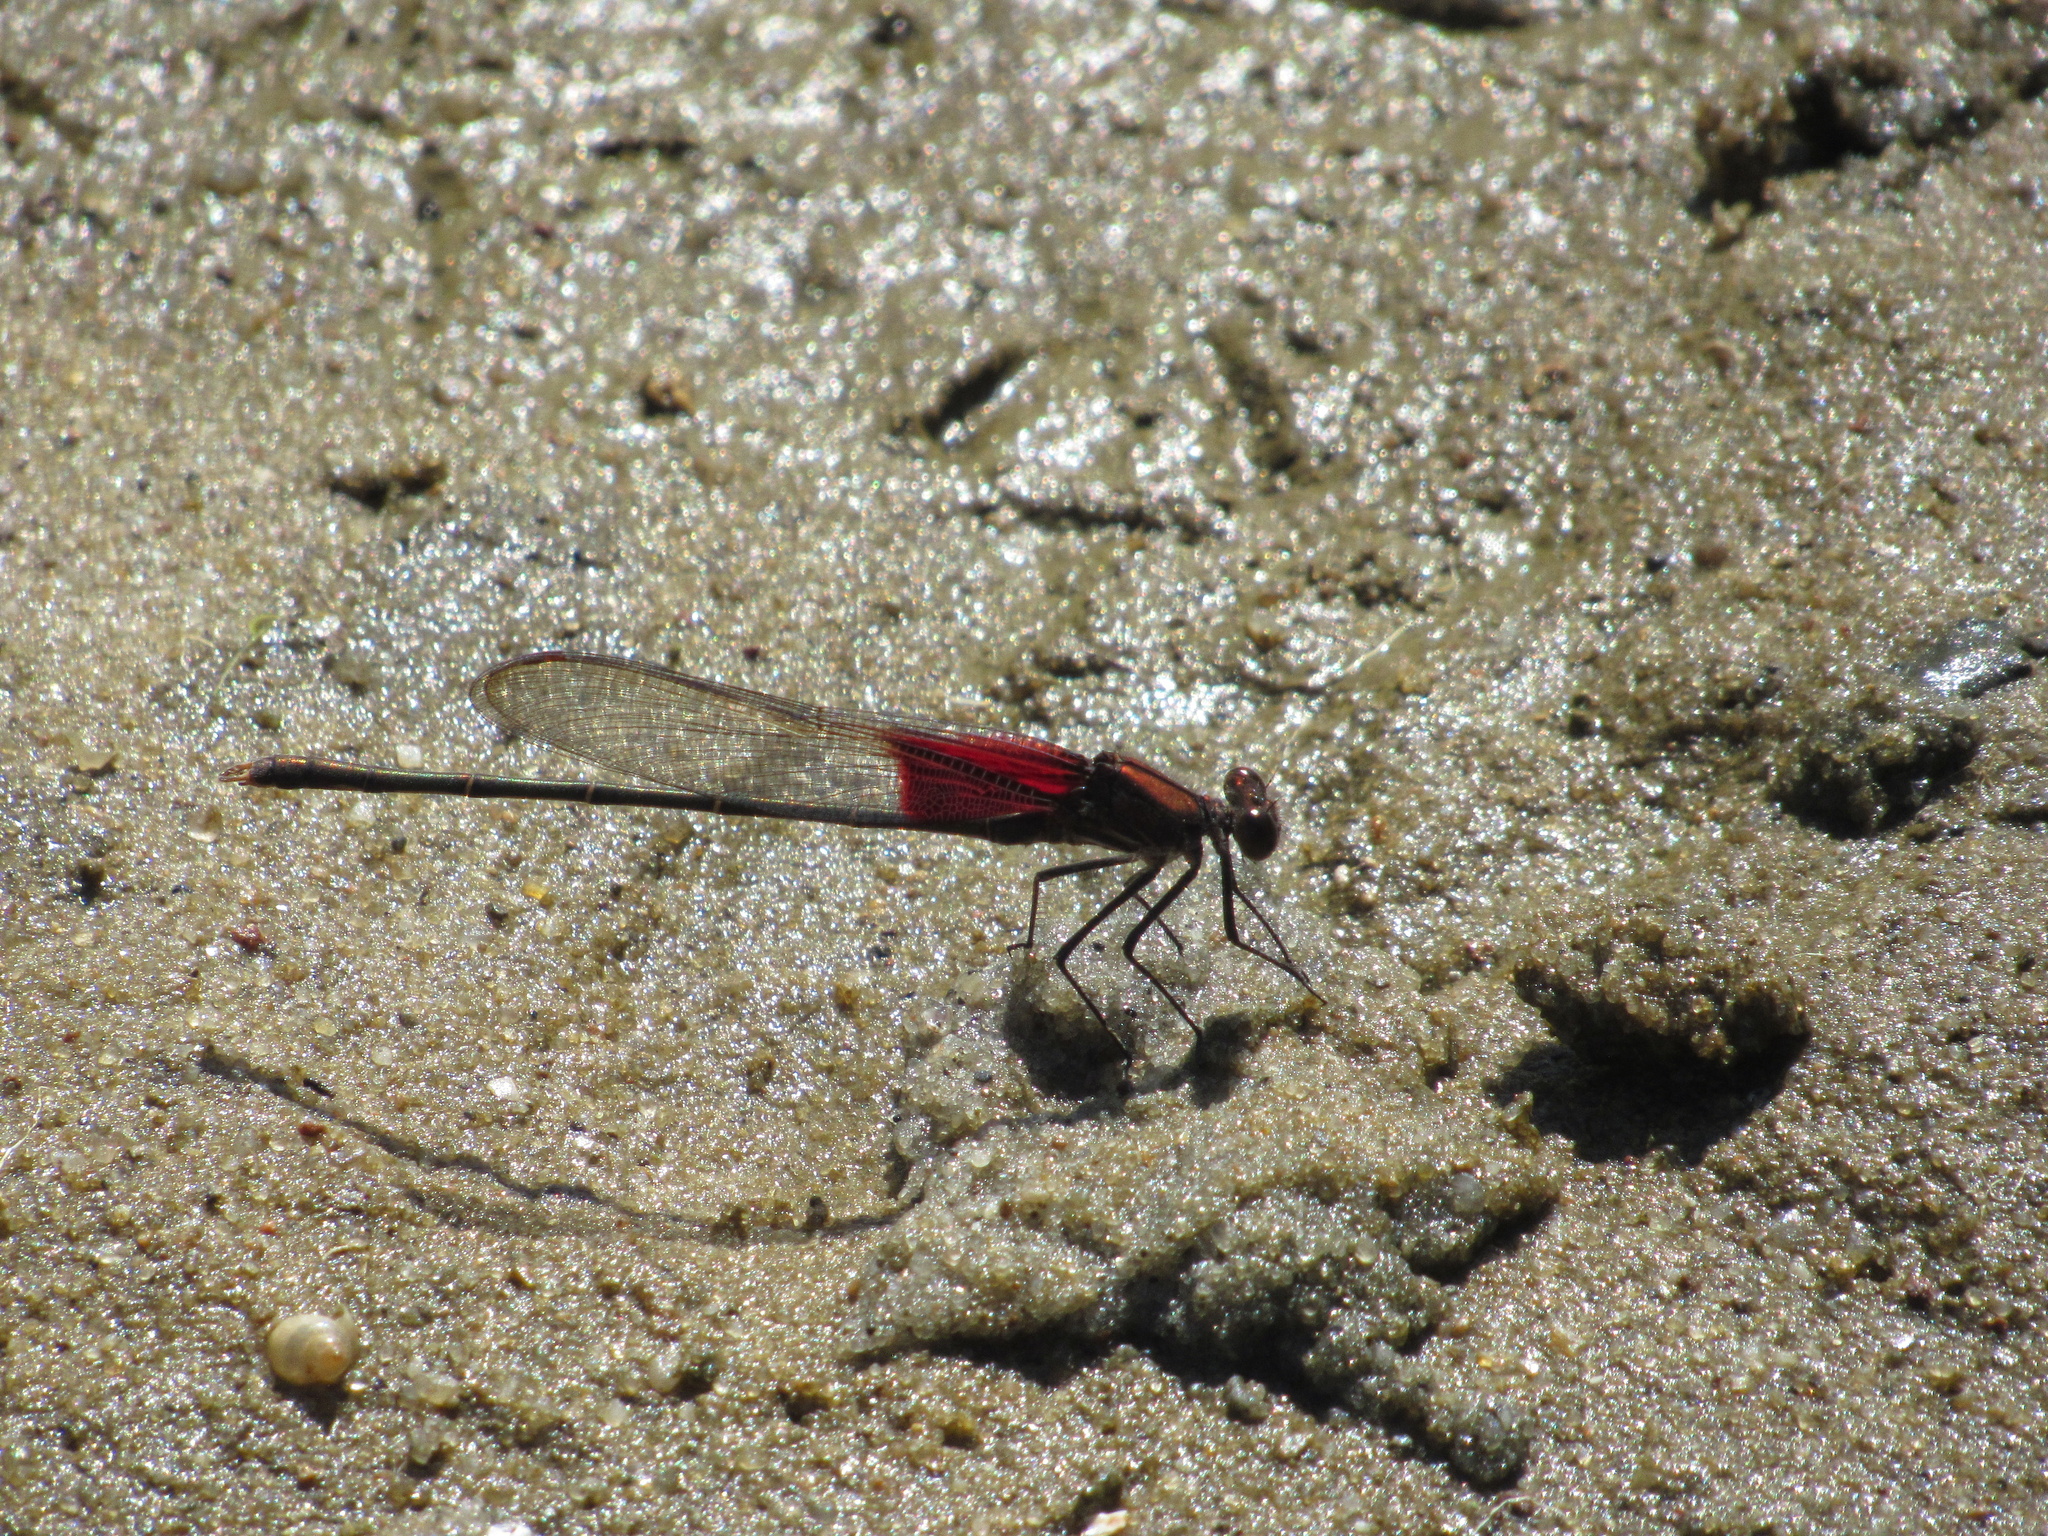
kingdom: Animalia
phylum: Arthropoda
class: Insecta
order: Odonata
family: Calopterygidae
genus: Hetaerina
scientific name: Hetaerina americana
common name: American rubyspot
